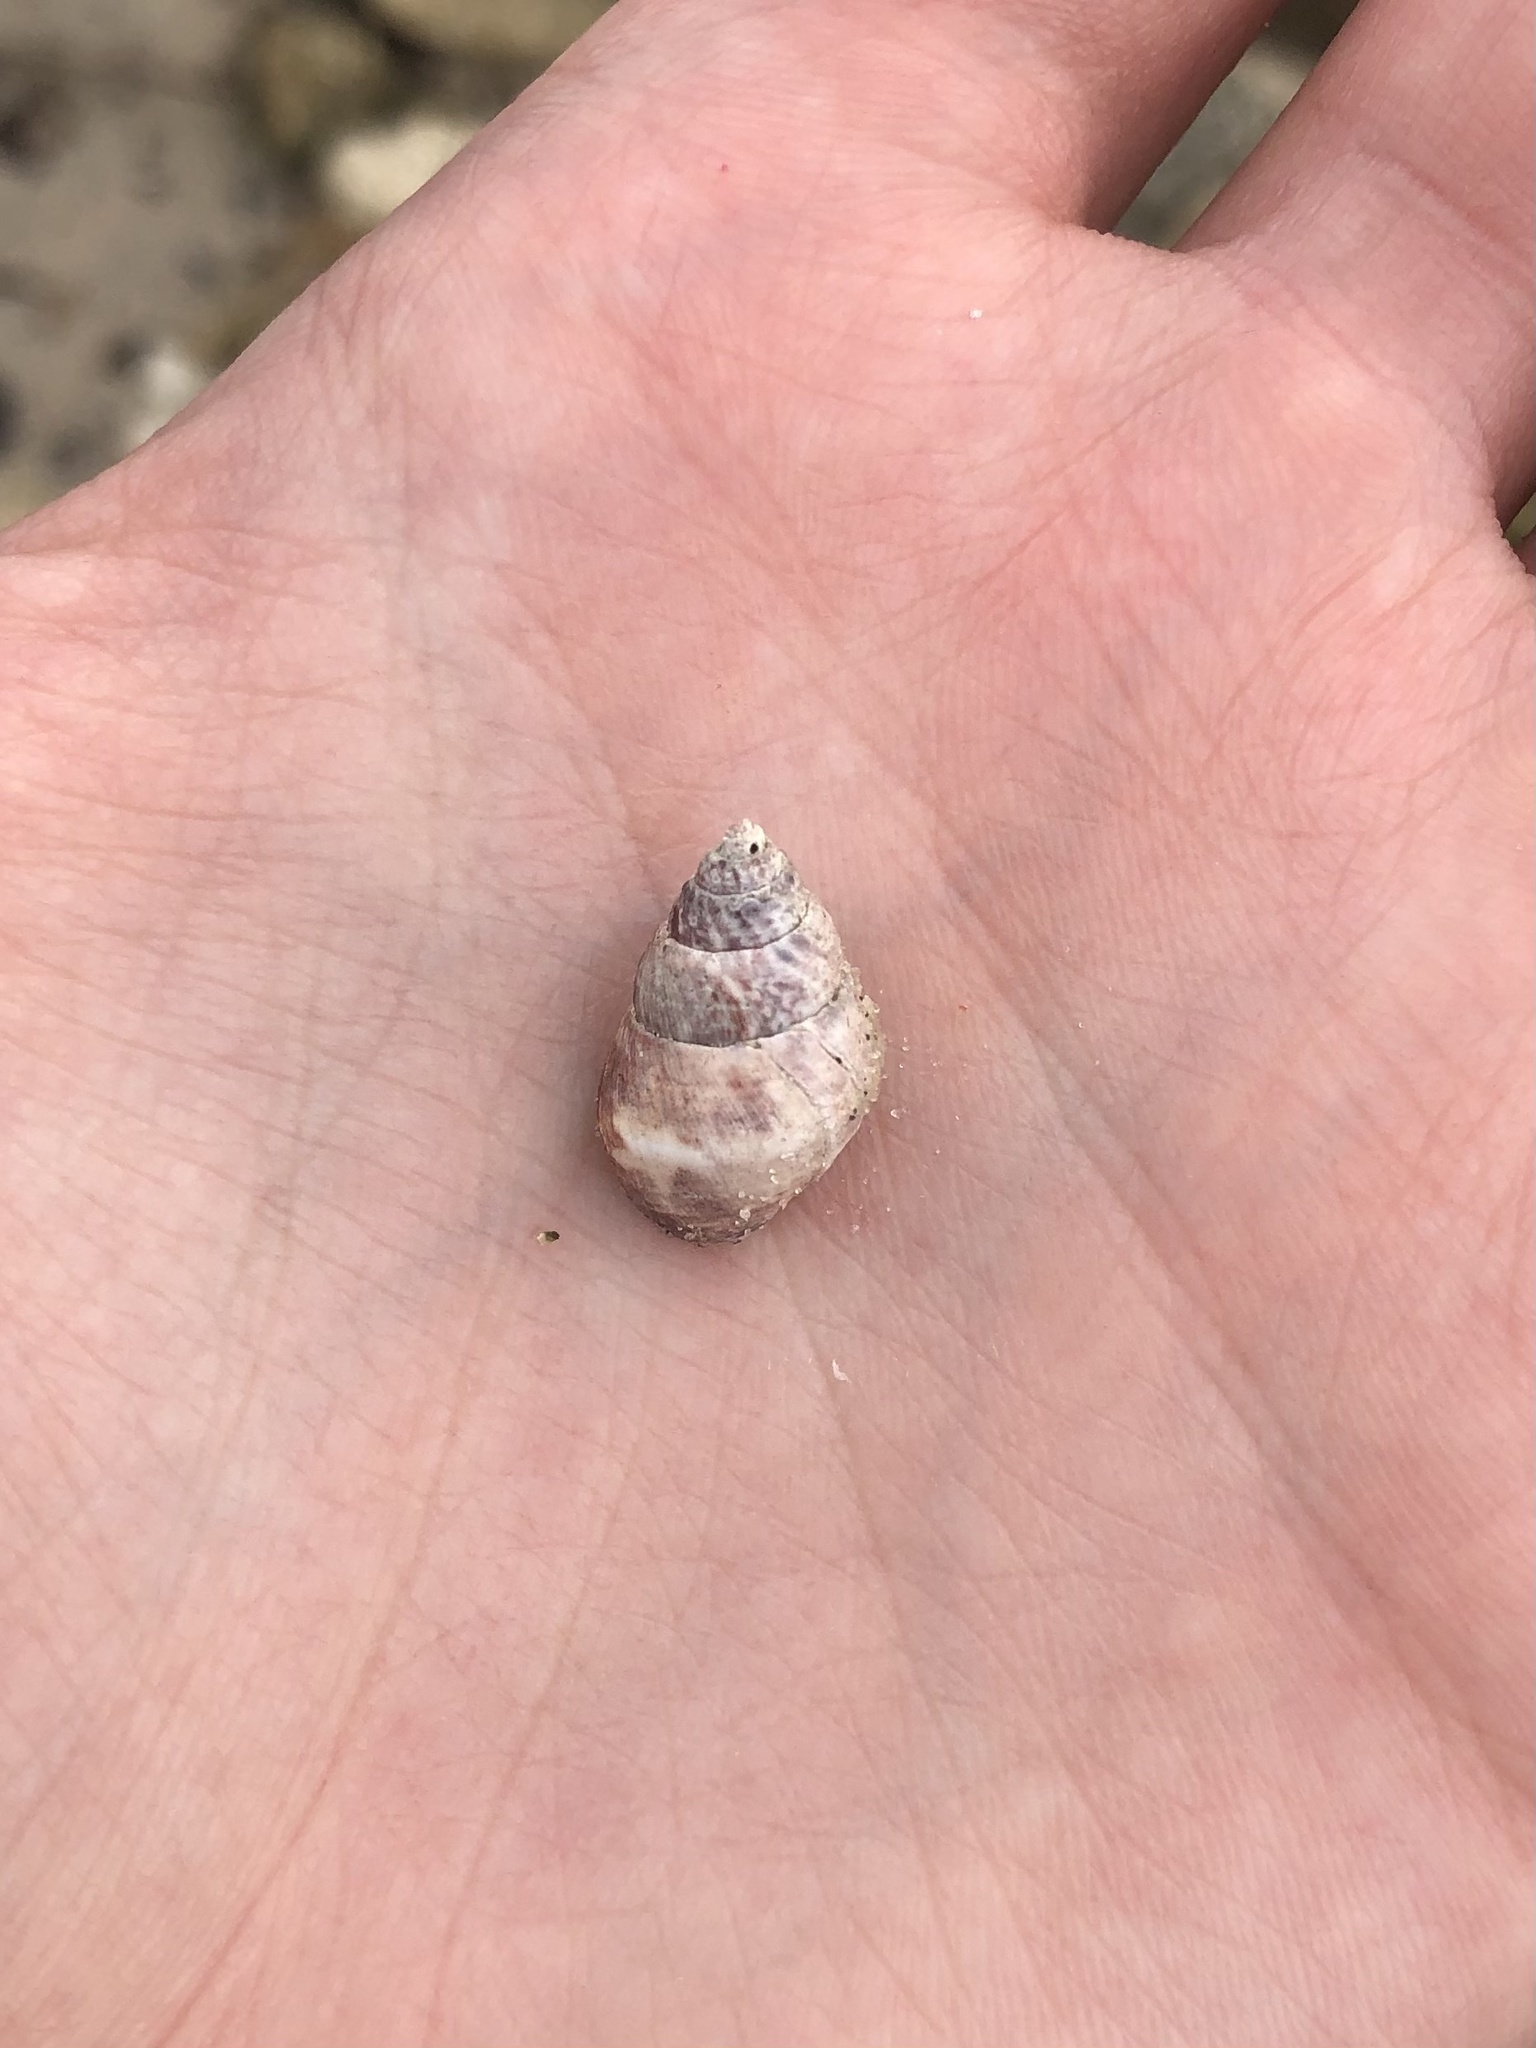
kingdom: Animalia
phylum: Mollusca
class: Gastropoda
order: Neogastropoda
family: Nassariidae
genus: Ilyanassa
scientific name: Ilyanassa obsoleta
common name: Eastern mudsnail
